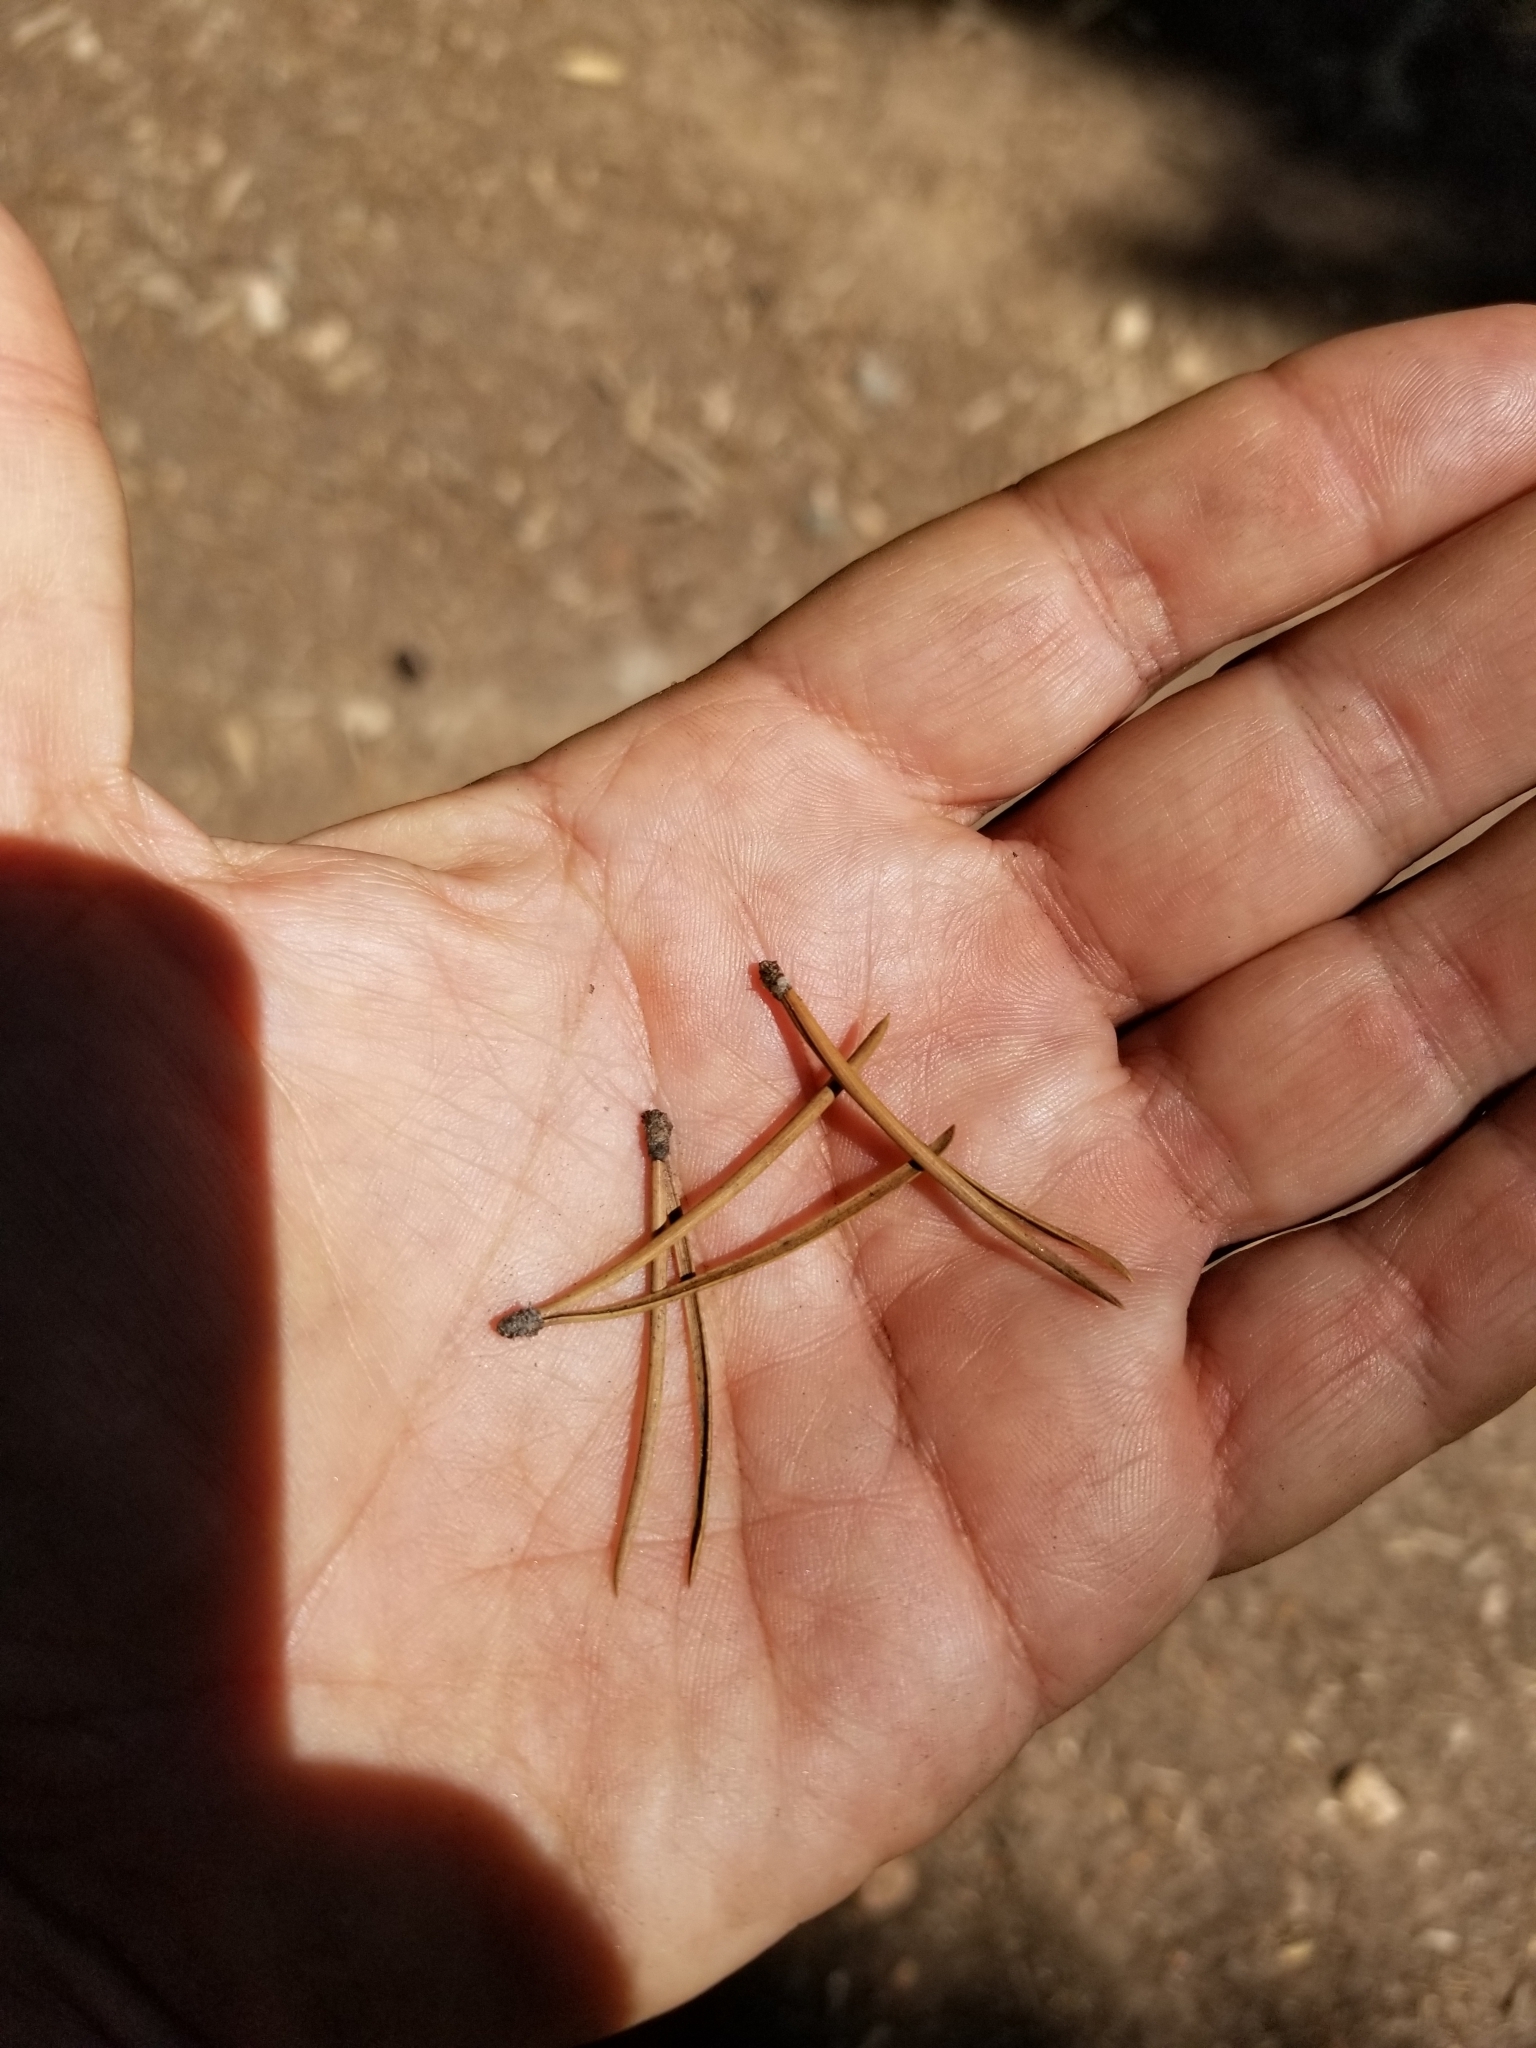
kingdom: Plantae
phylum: Tracheophyta
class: Pinopsida
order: Pinales
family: Pinaceae
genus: Pinus
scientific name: Pinus contorta
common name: Lodgepole pine
